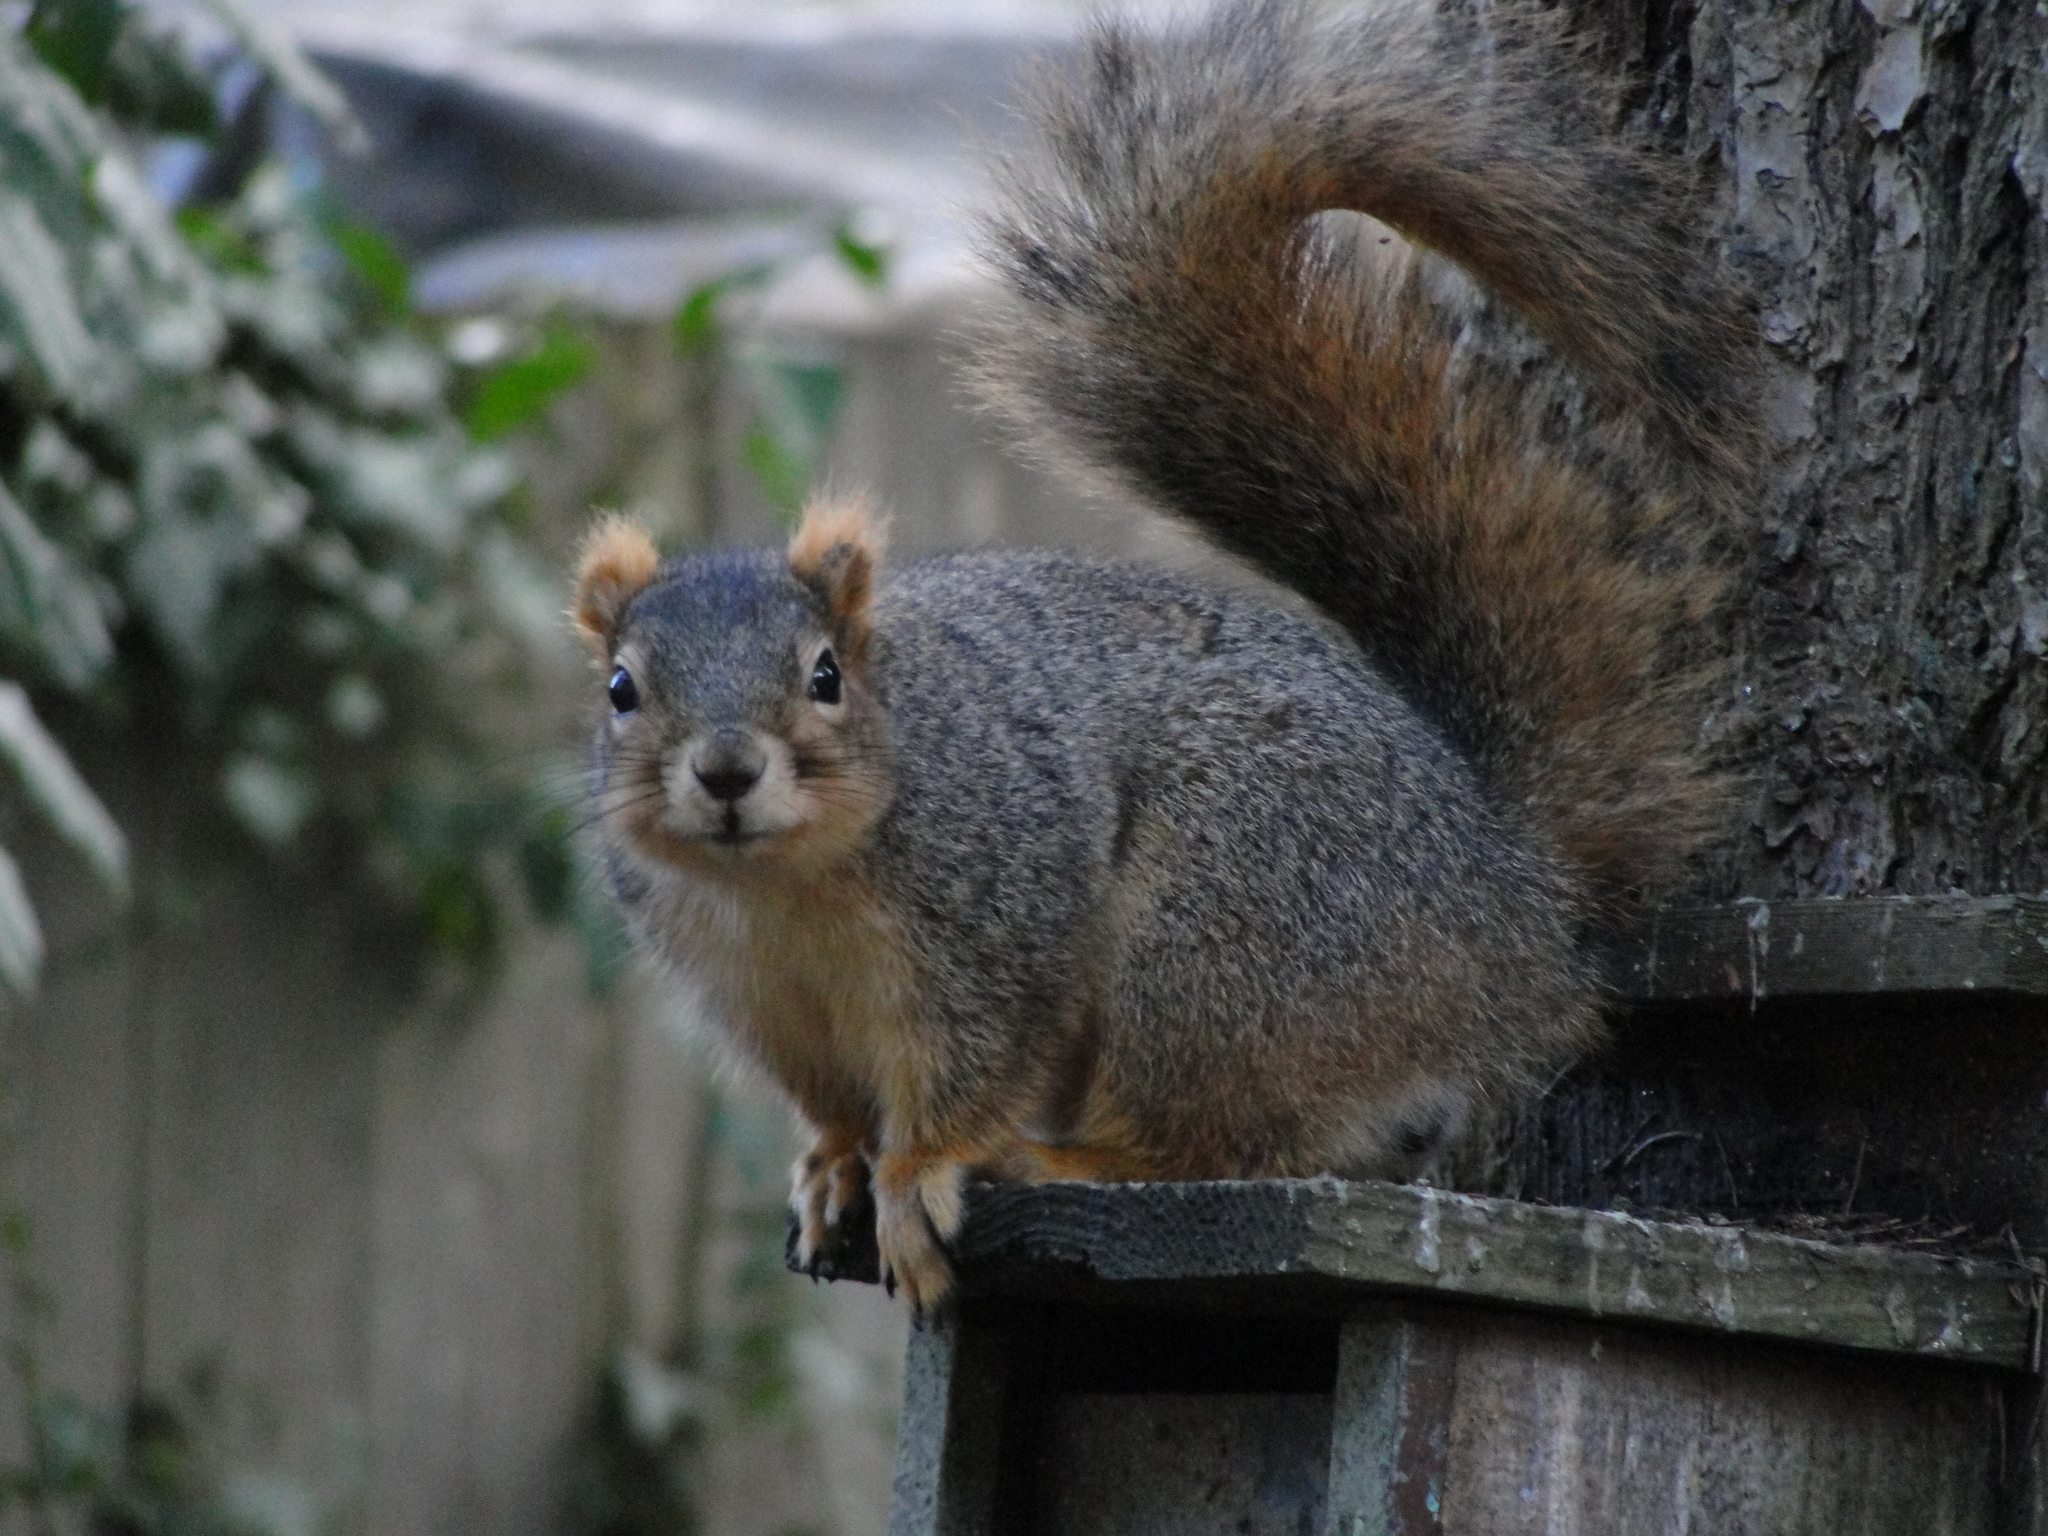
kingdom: Animalia
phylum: Chordata
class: Mammalia
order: Rodentia
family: Sciuridae
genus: Sciurus
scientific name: Sciurus niger
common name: Fox squirrel
